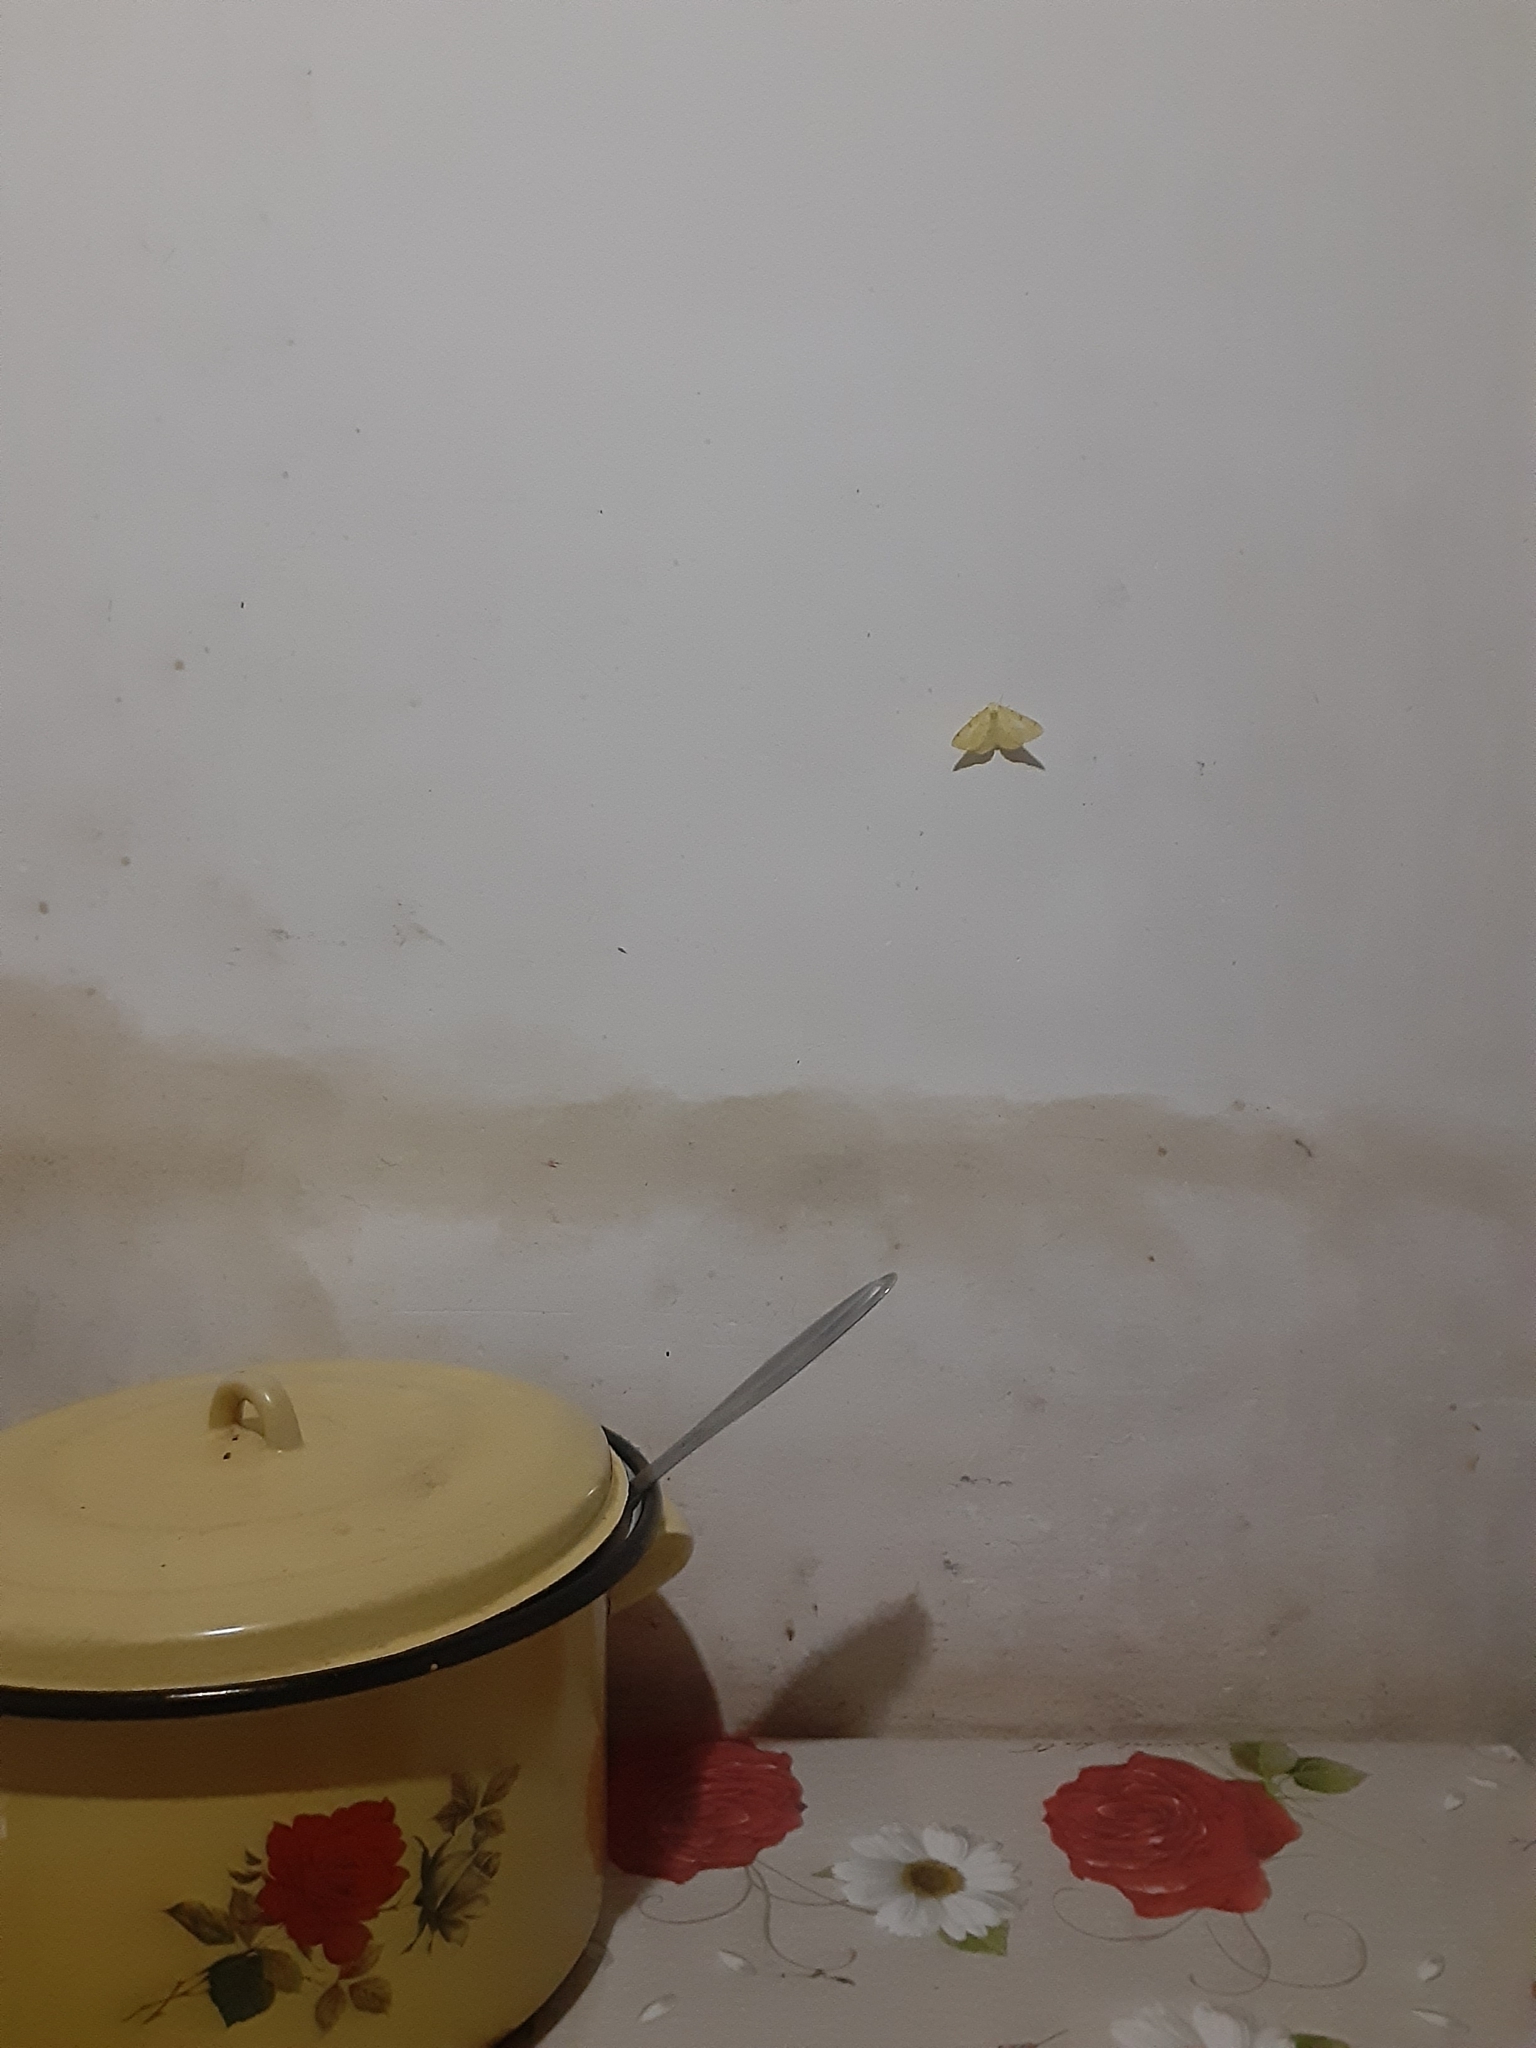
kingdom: Animalia
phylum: Arthropoda
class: Insecta
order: Lepidoptera
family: Geometridae
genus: Opisthograptis
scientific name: Opisthograptis luteolata
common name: Brimstone moth
